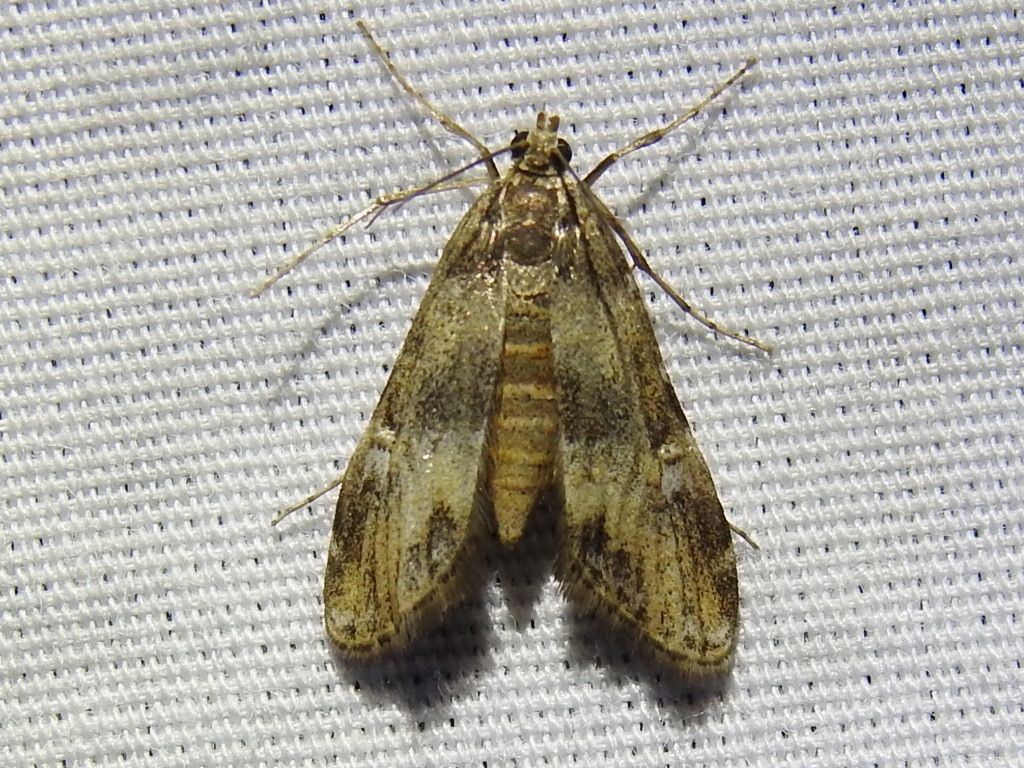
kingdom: Animalia
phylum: Arthropoda
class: Insecta
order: Lepidoptera
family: Crambidae
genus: Elophila
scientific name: Elophila obliteralis
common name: Waterlily leafcutter moth
